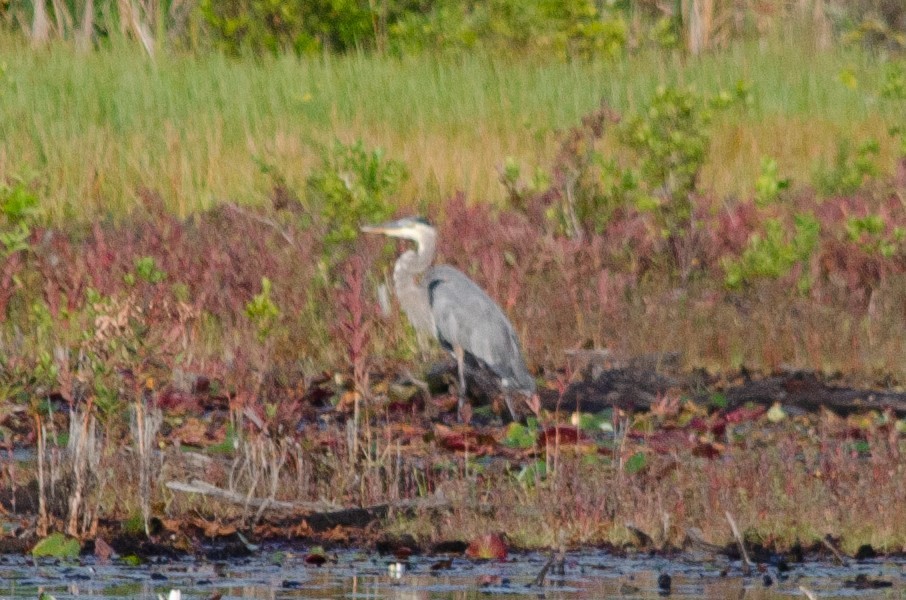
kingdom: Animalia
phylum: Chordata
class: Aves
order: Pelecaniformes
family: Ardeidae
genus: Ardea
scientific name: Ardea herodias
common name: Great blue heron
